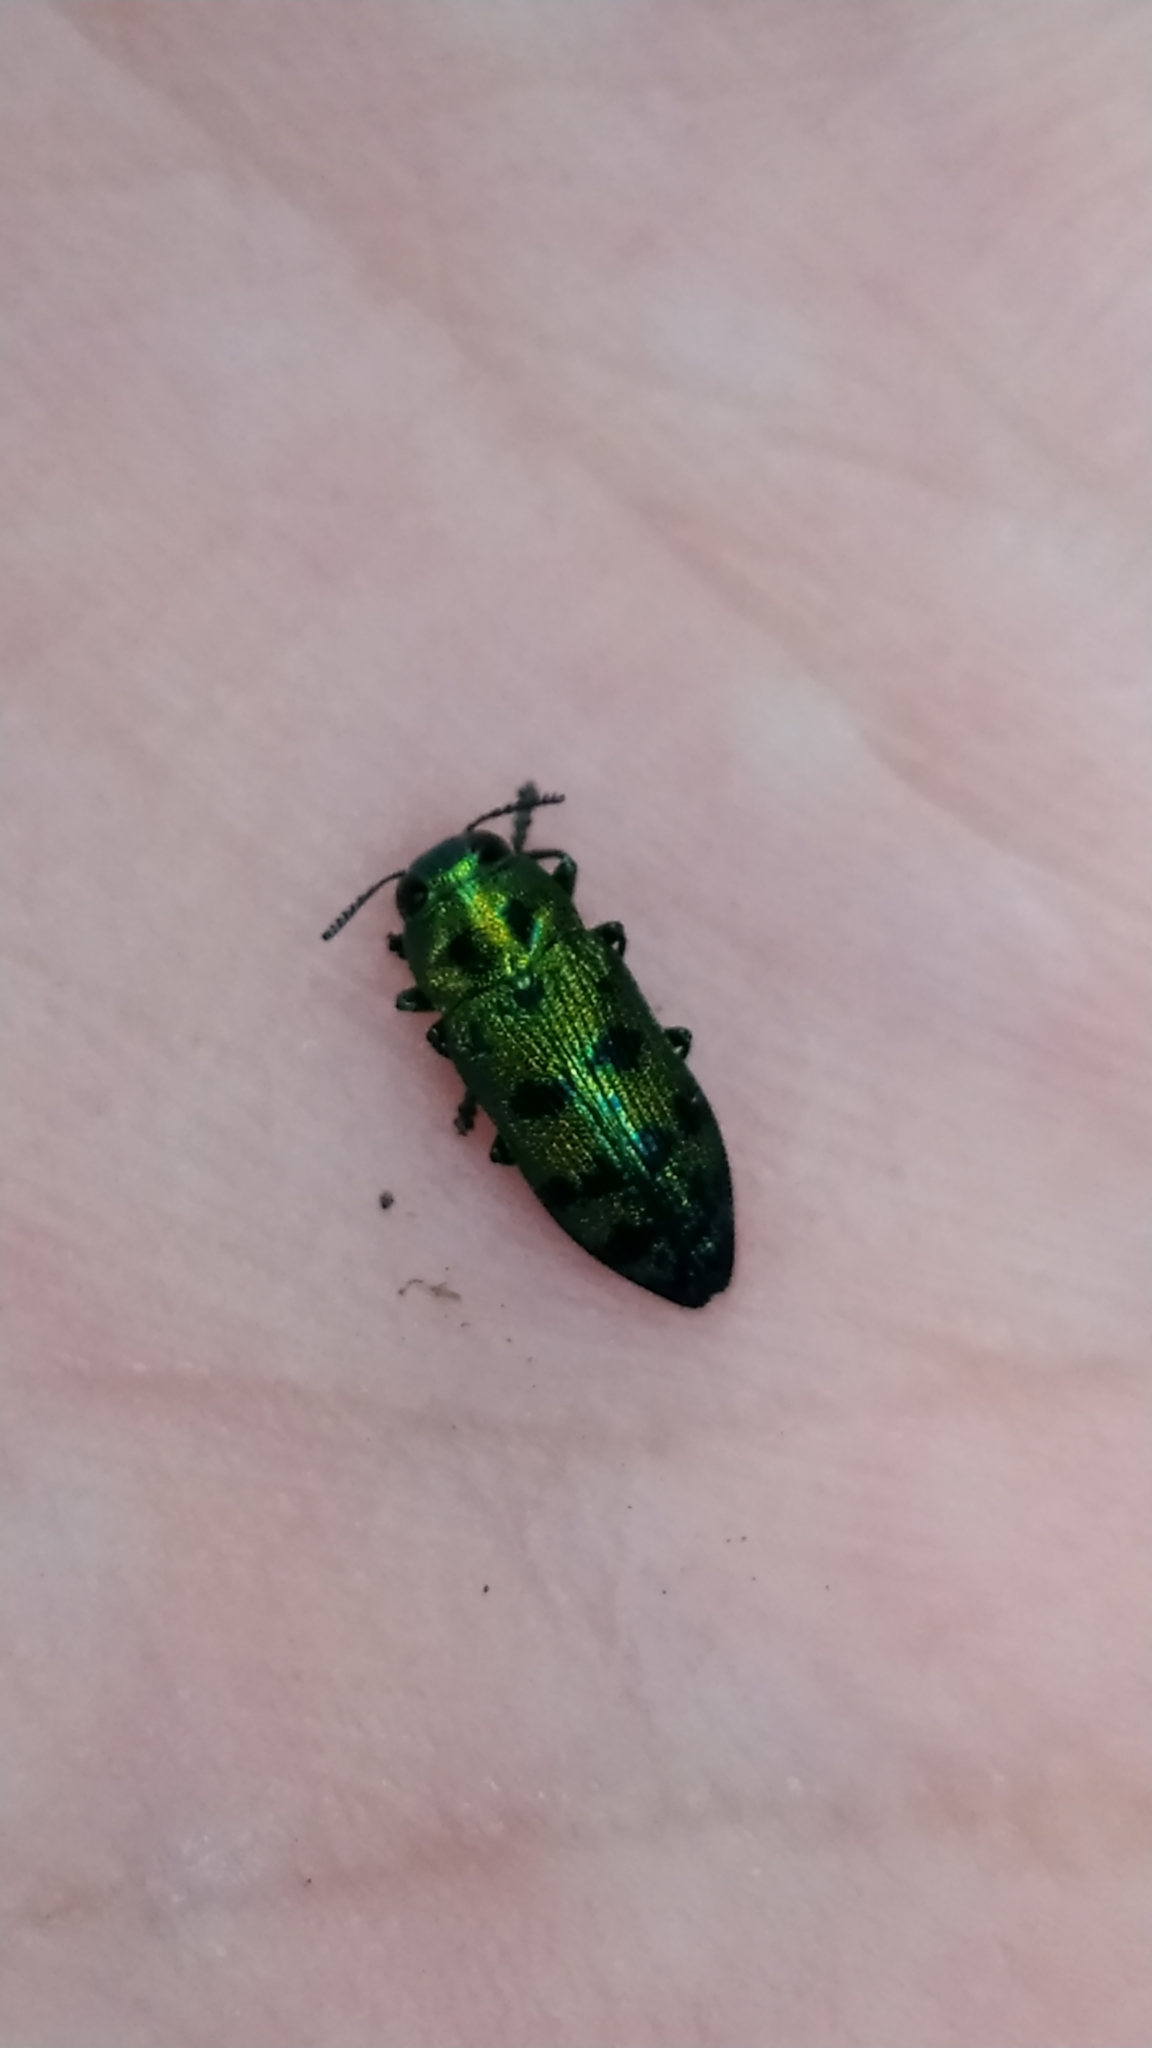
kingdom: Animalia
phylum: Arthropoda
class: Insecta
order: Coleoptera
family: Buprestidae
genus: Lamprodila
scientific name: Lamprodila festiva
